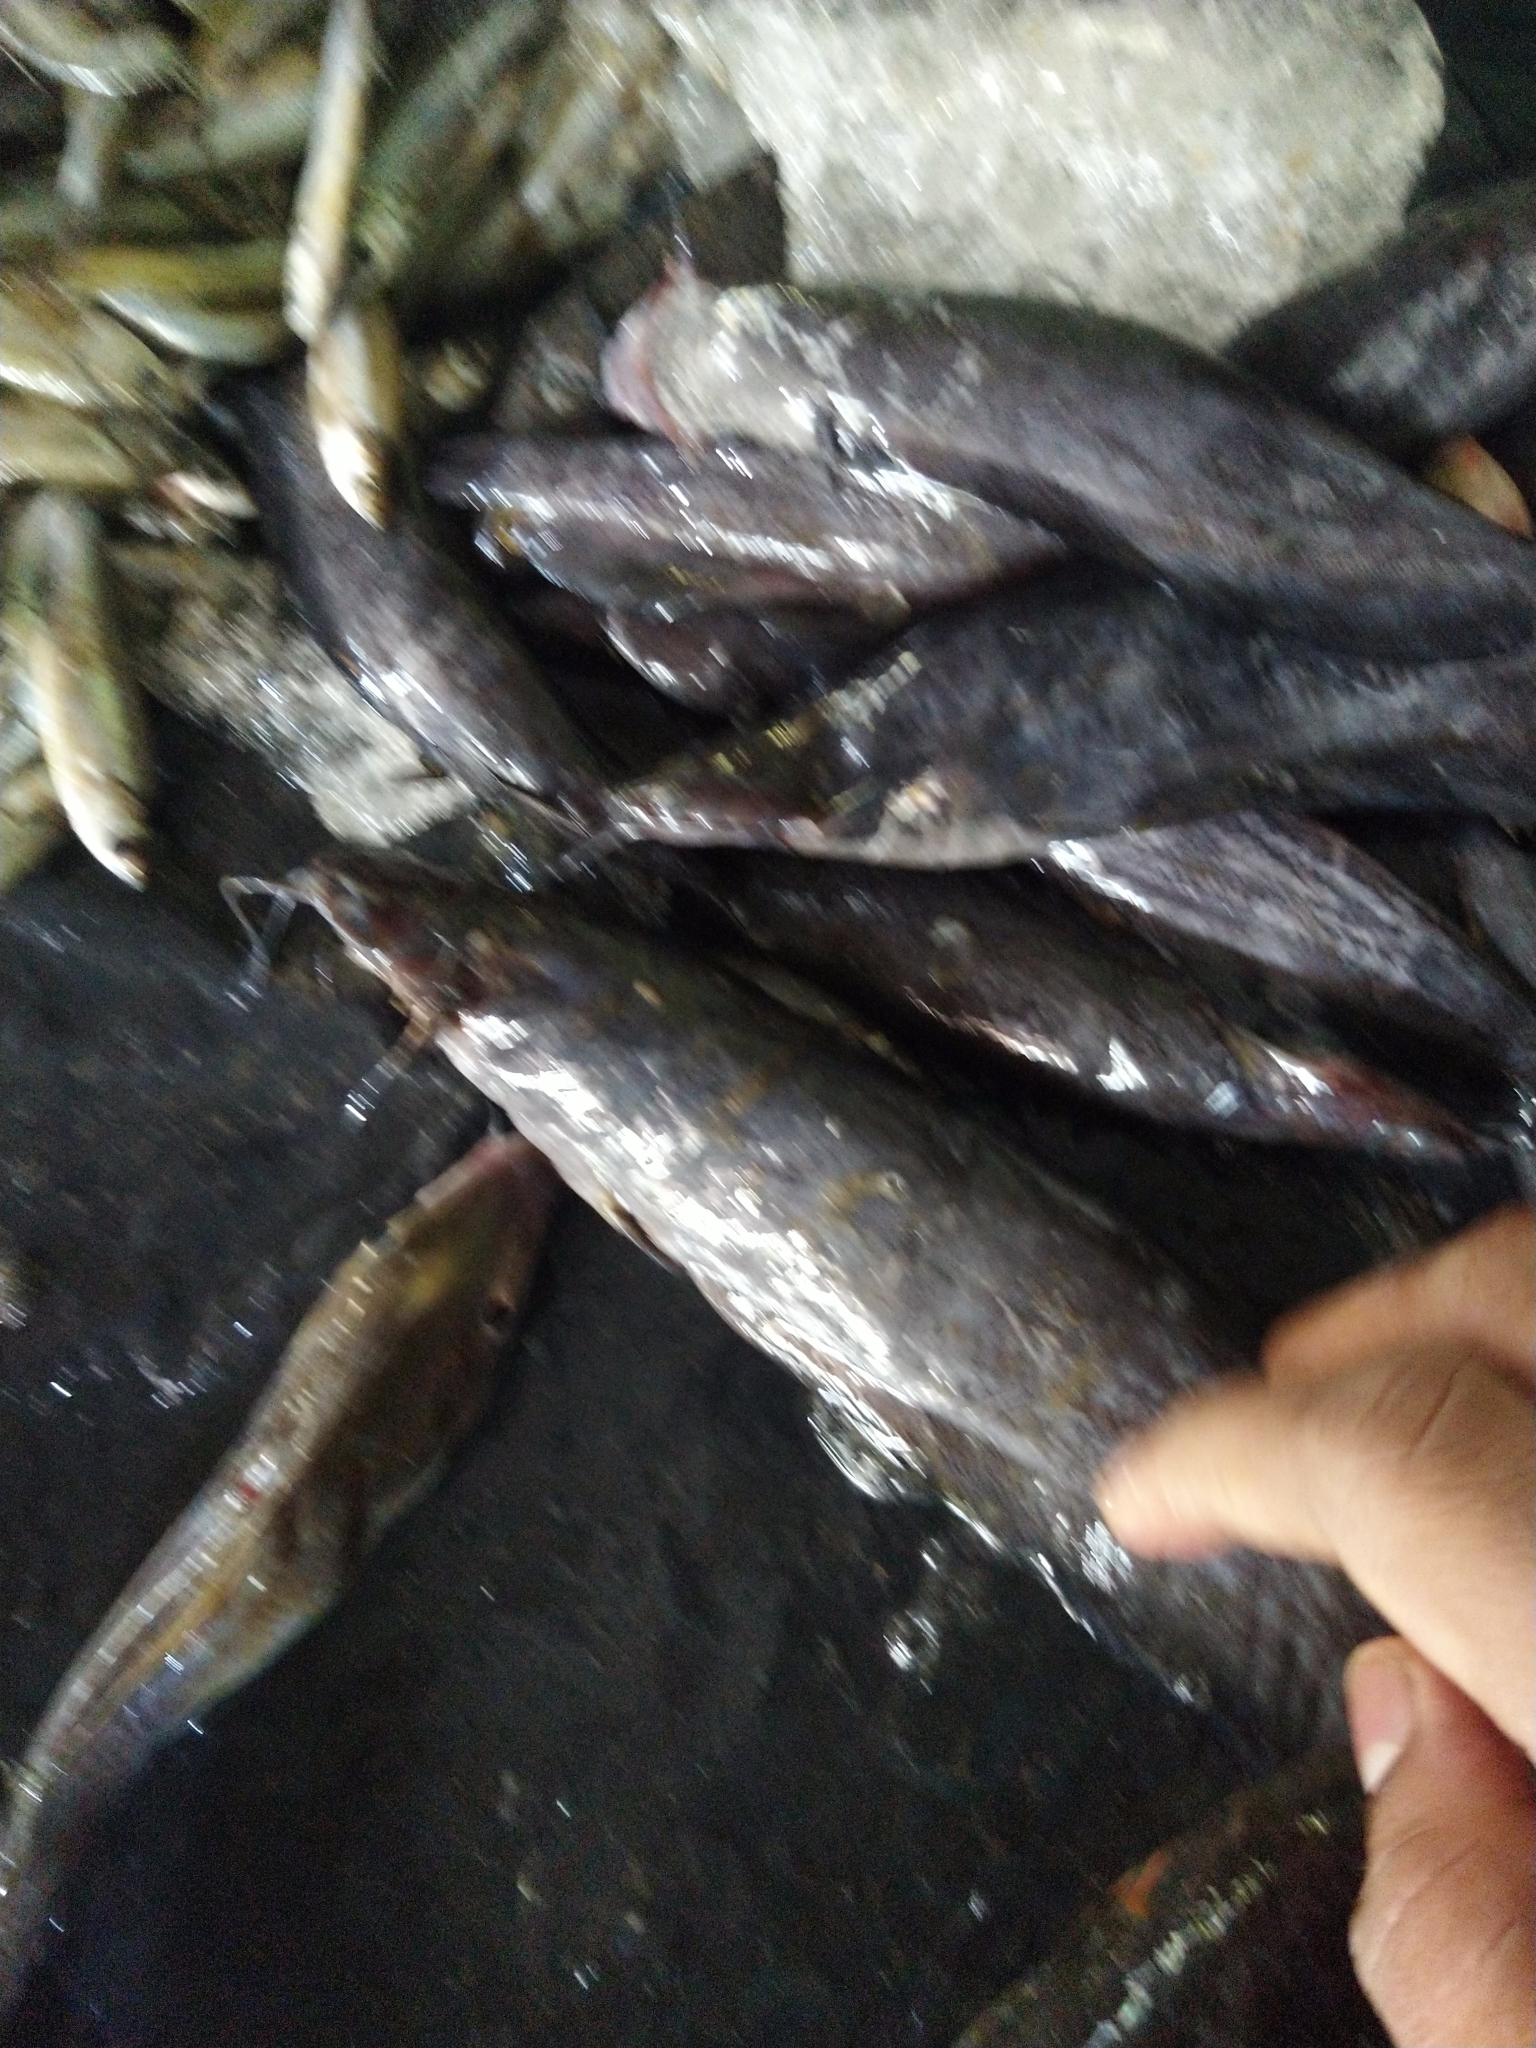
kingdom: Animalia
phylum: Chordata
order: Siluriformes
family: Heteropneustidae
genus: Heteropneustes
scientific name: Heteropneustes fossilis
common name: Stinging catfish
